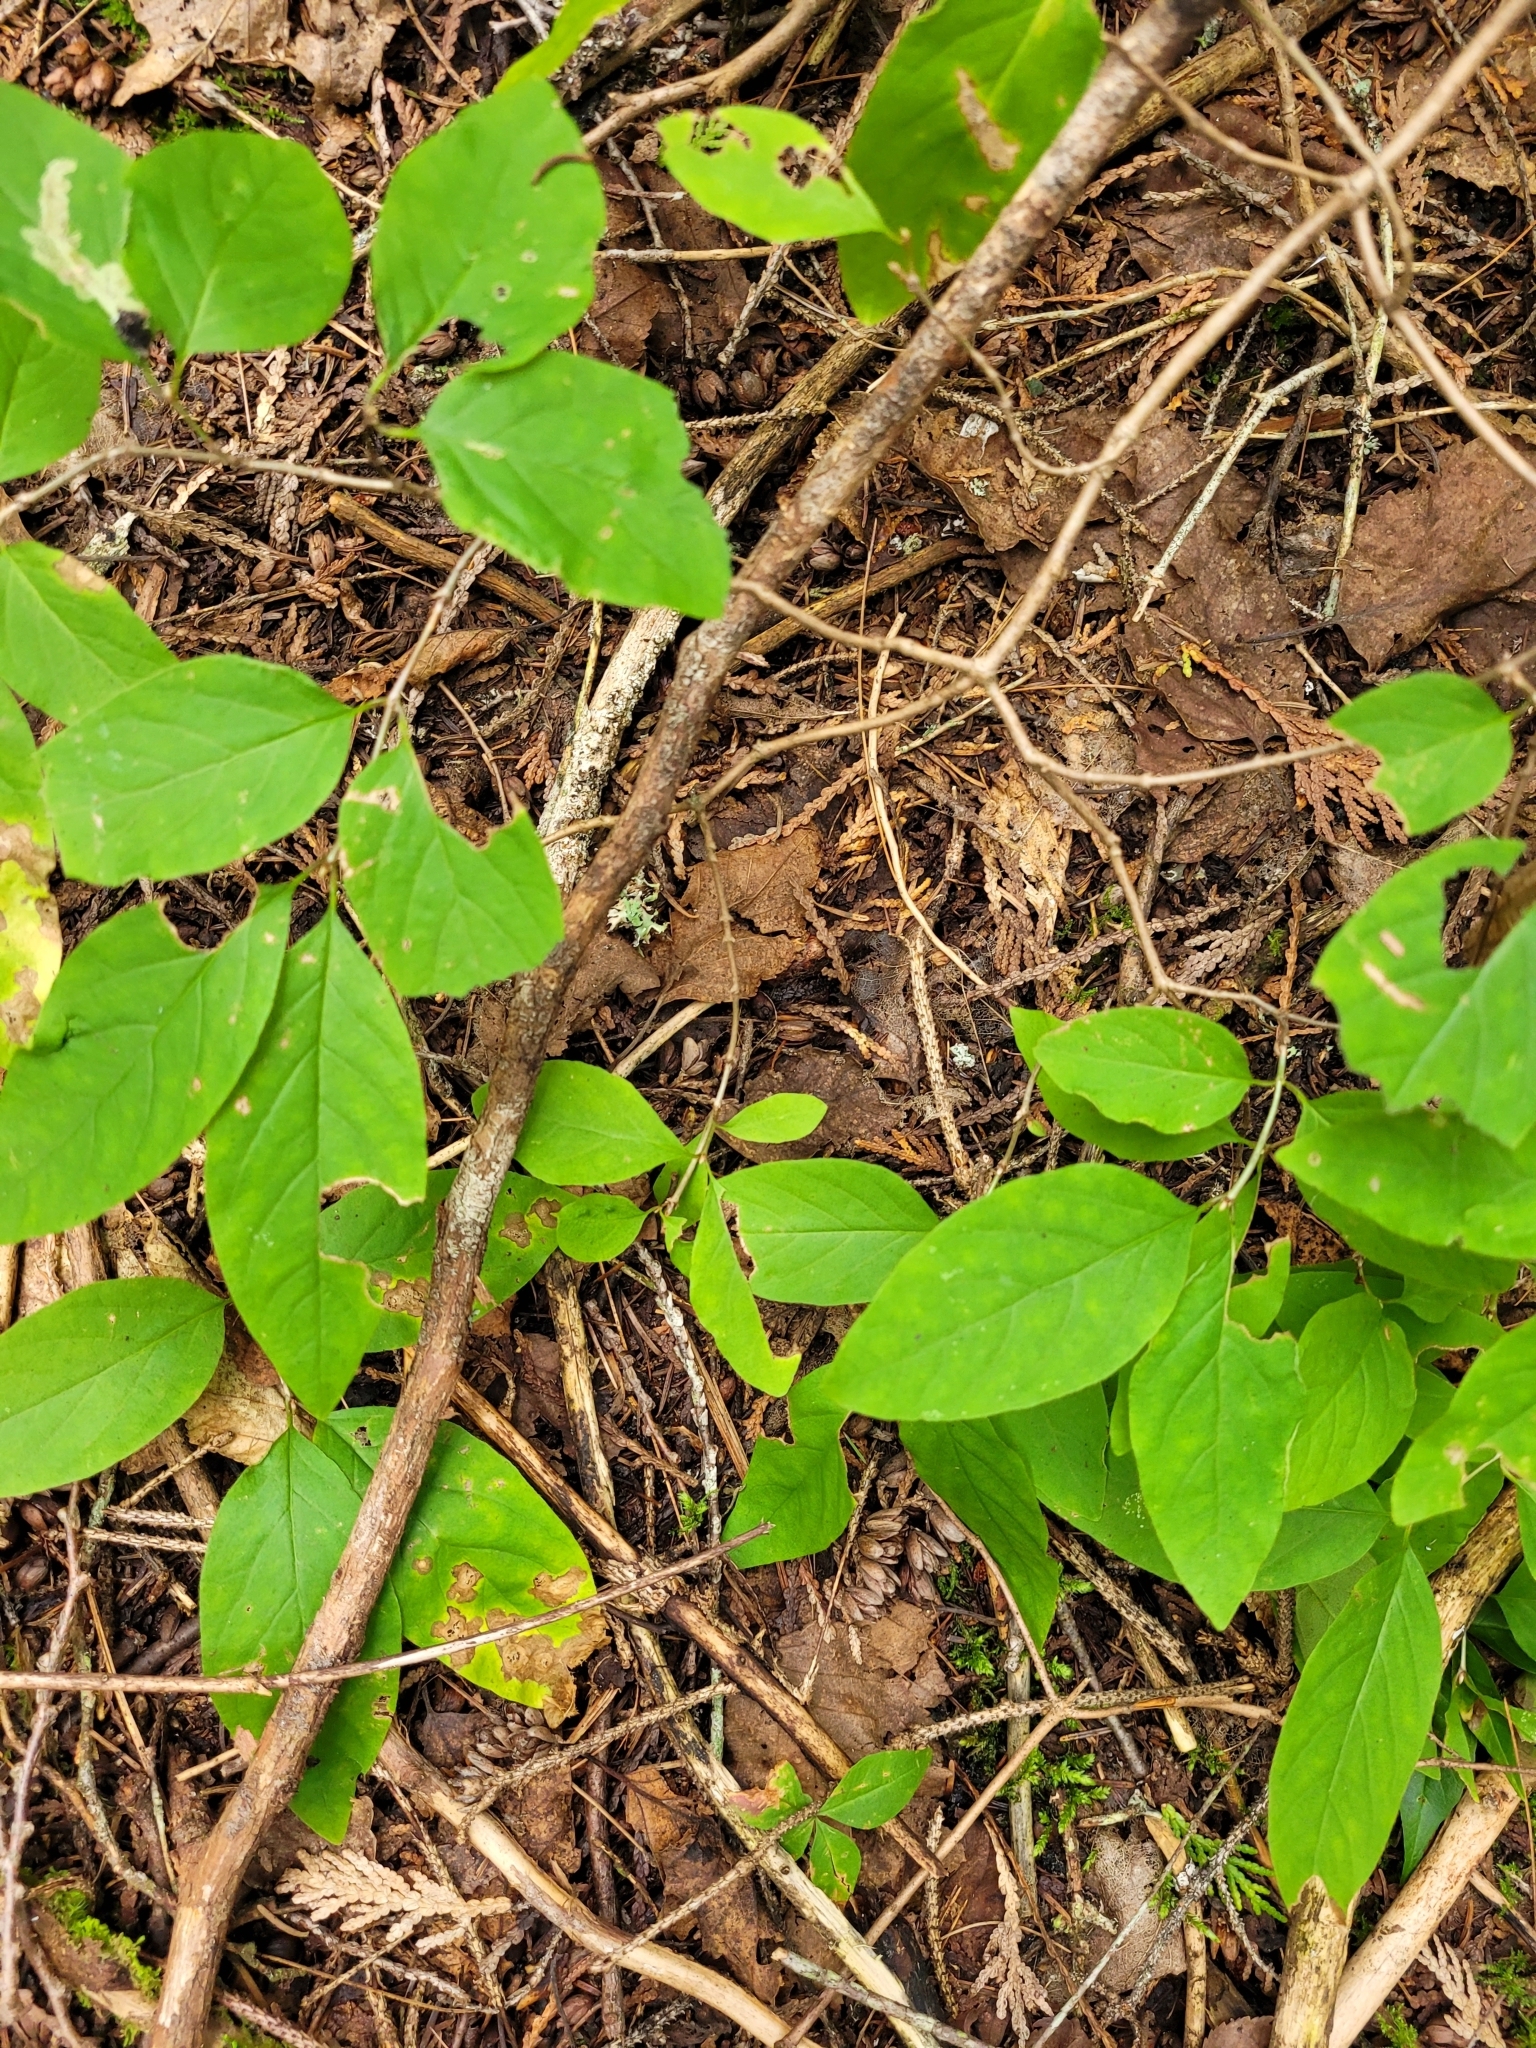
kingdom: Plantae
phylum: Tracheophyta
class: Magnoliopsida
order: Dipsacales
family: Caprifoliaceae
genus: Lonicera
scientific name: Lonicera canadensis
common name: American fly-honeysuckle
